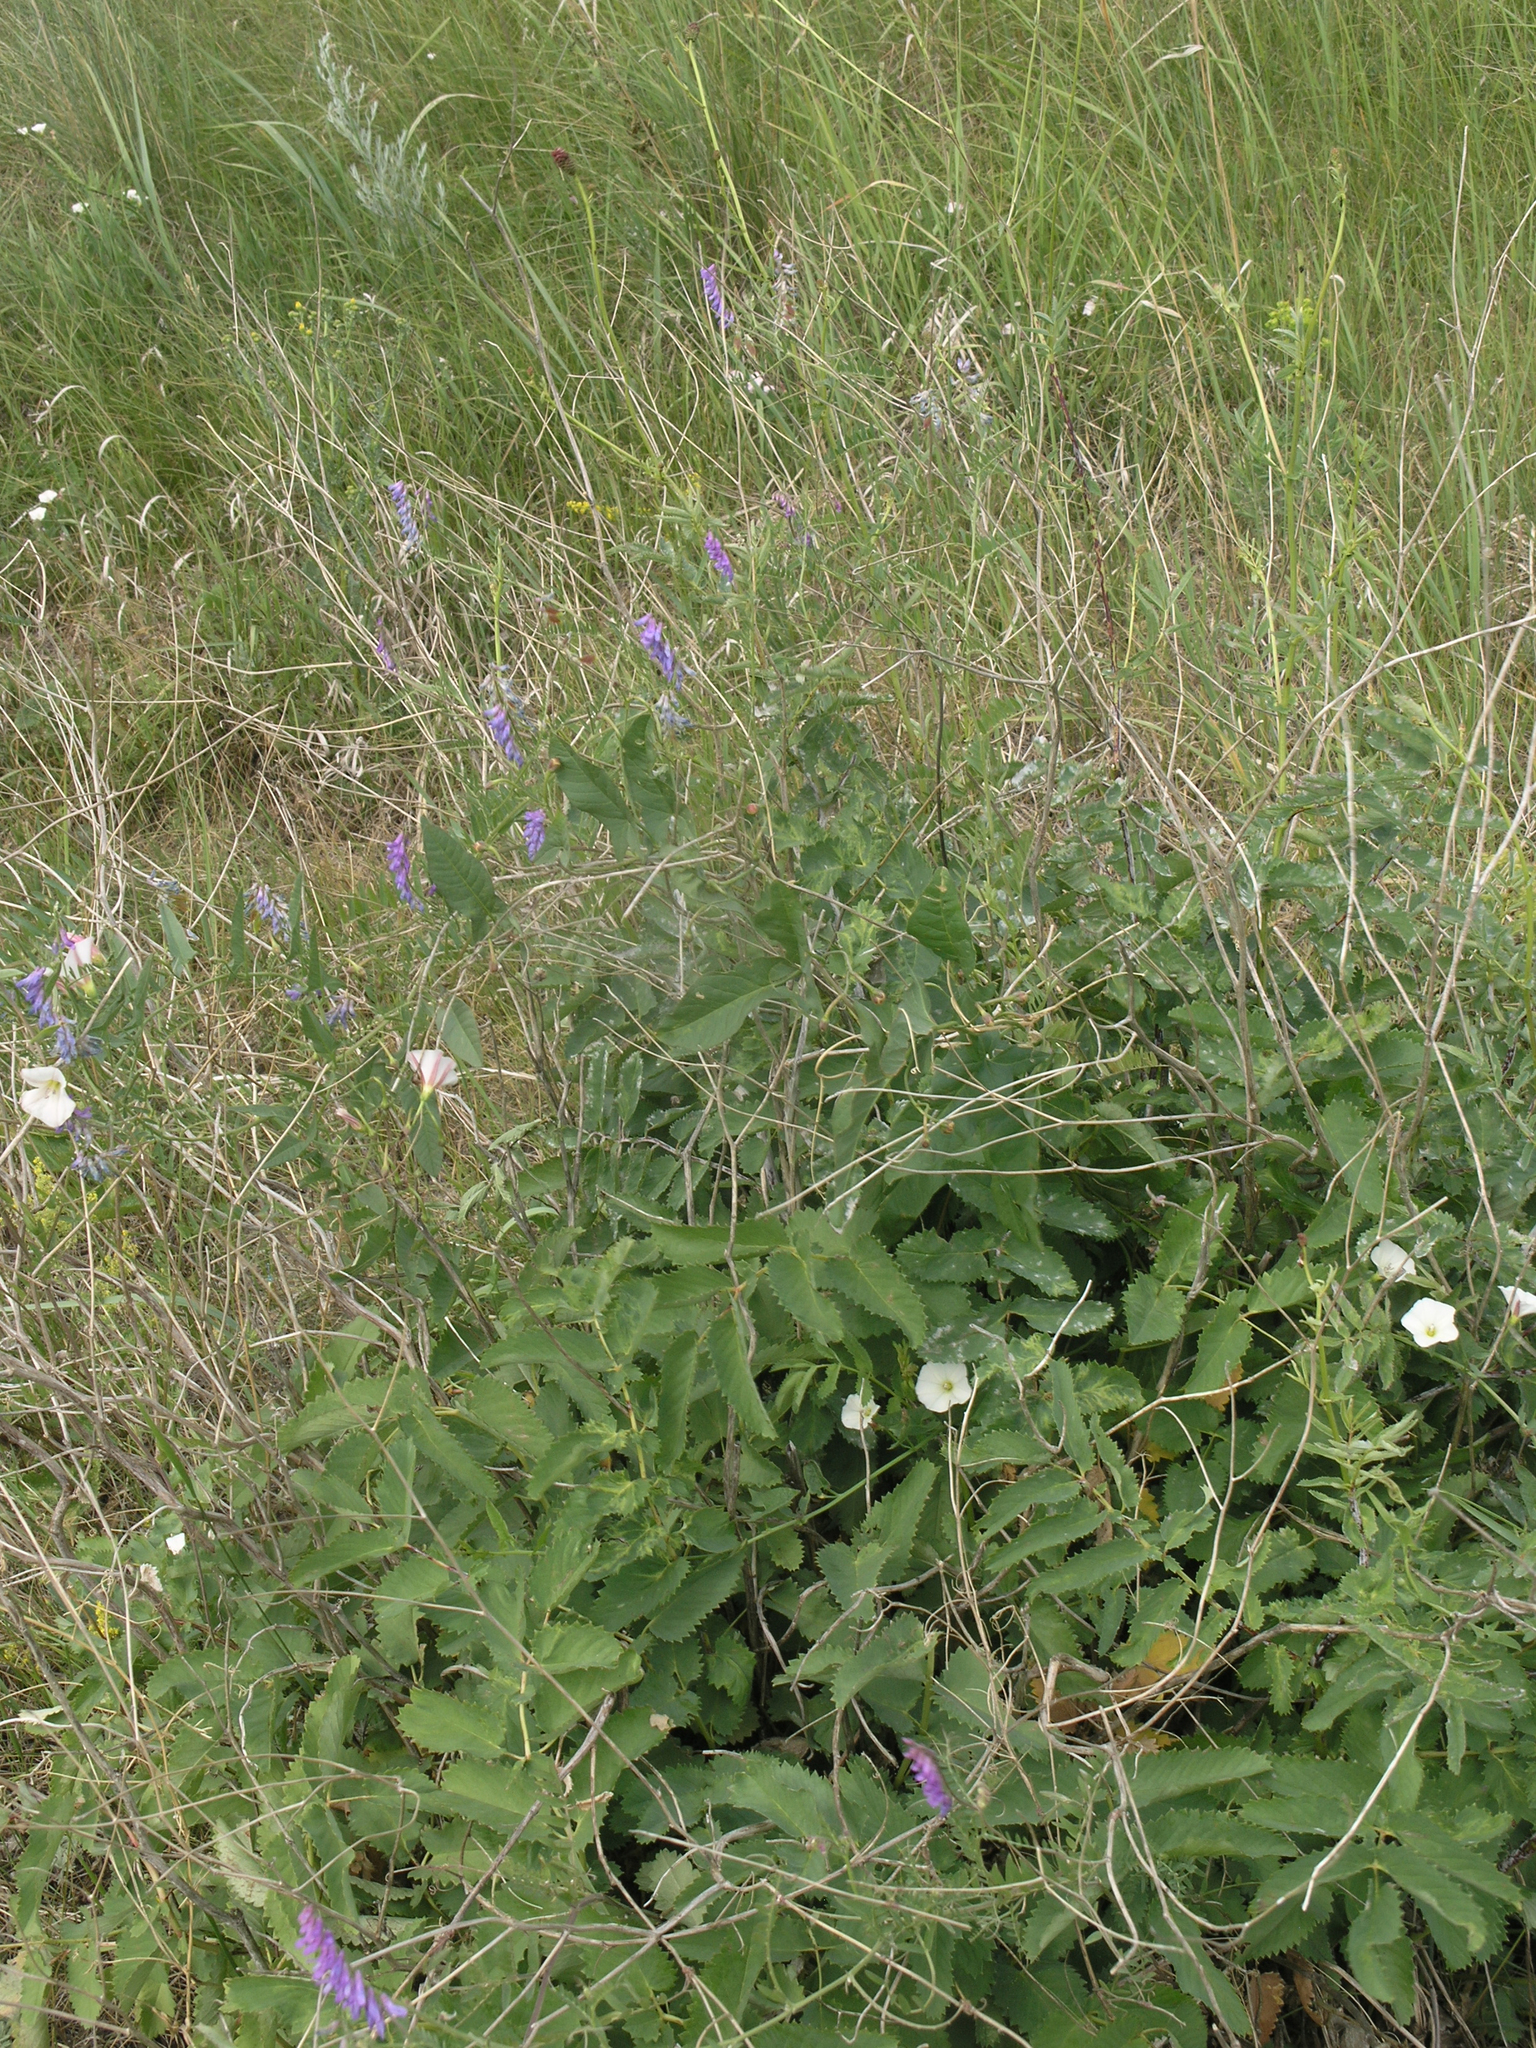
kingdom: Plantae
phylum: Tracheophyta
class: Magnoliopsida
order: Rosales
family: Rosaceae
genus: Sanguisorba
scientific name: Sanguisorba officinalis
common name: Great burnet
